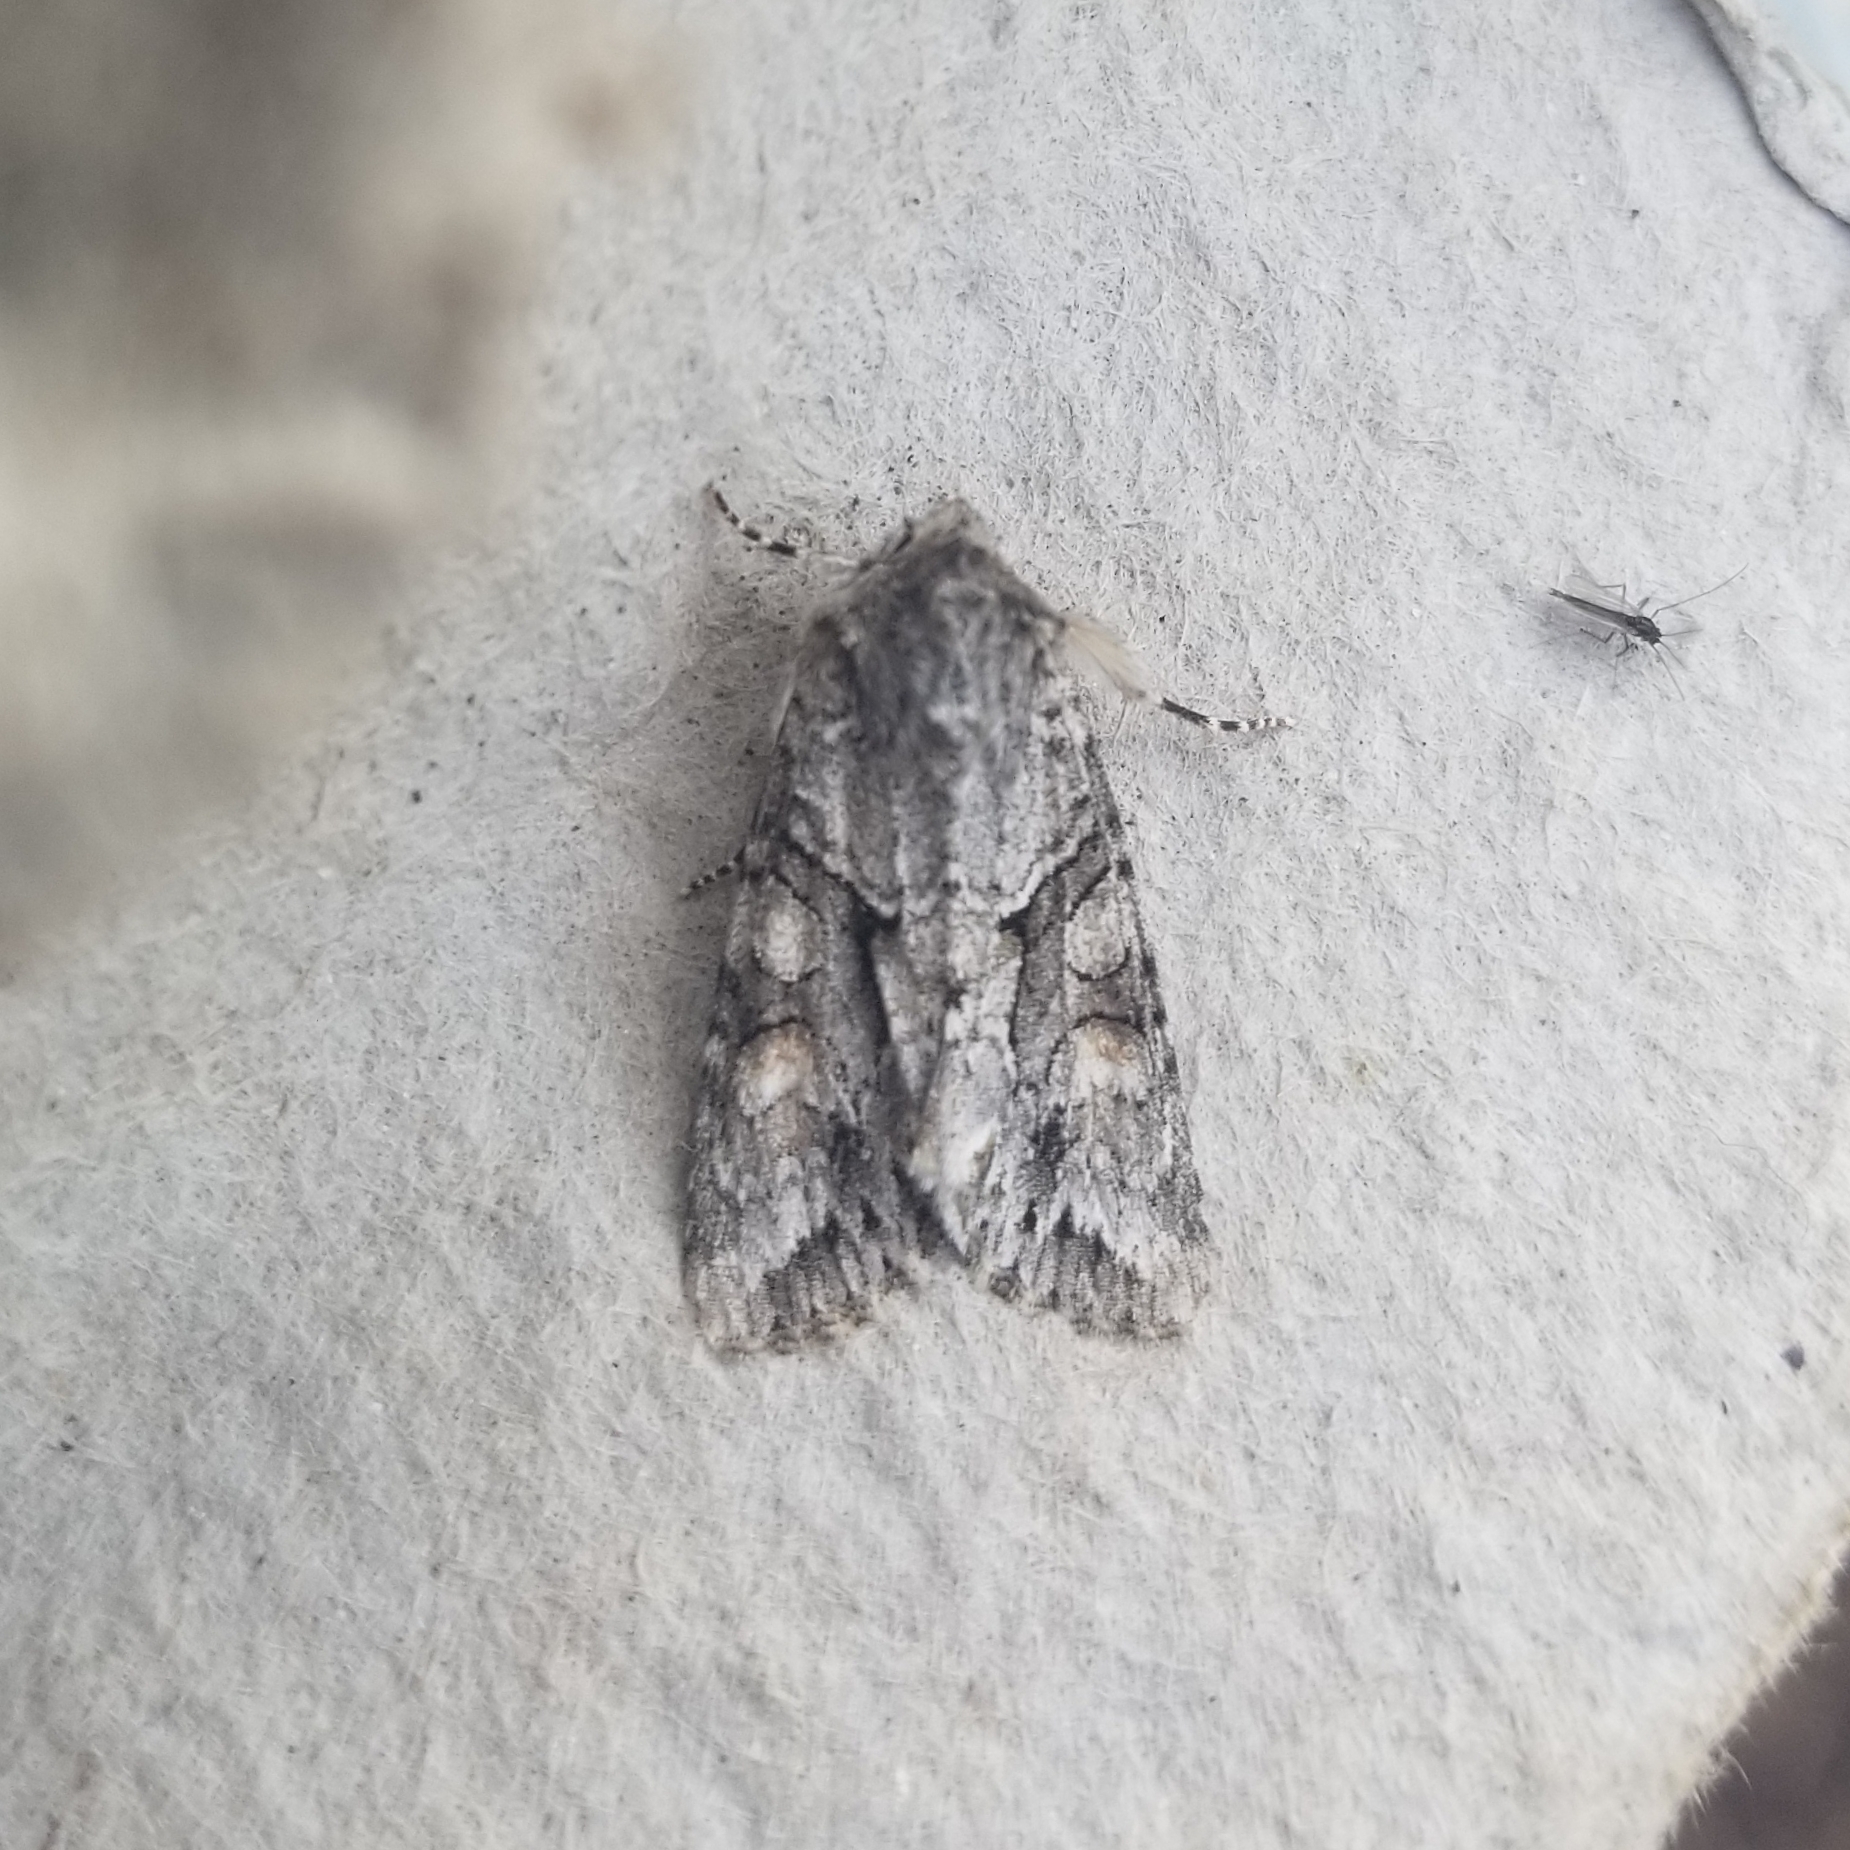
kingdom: Animalia
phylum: Arthropoda
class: Insecta
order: Lepidoptera
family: Noctuidae
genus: Achatia
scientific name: Achatia distincta
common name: Distinct quaker
